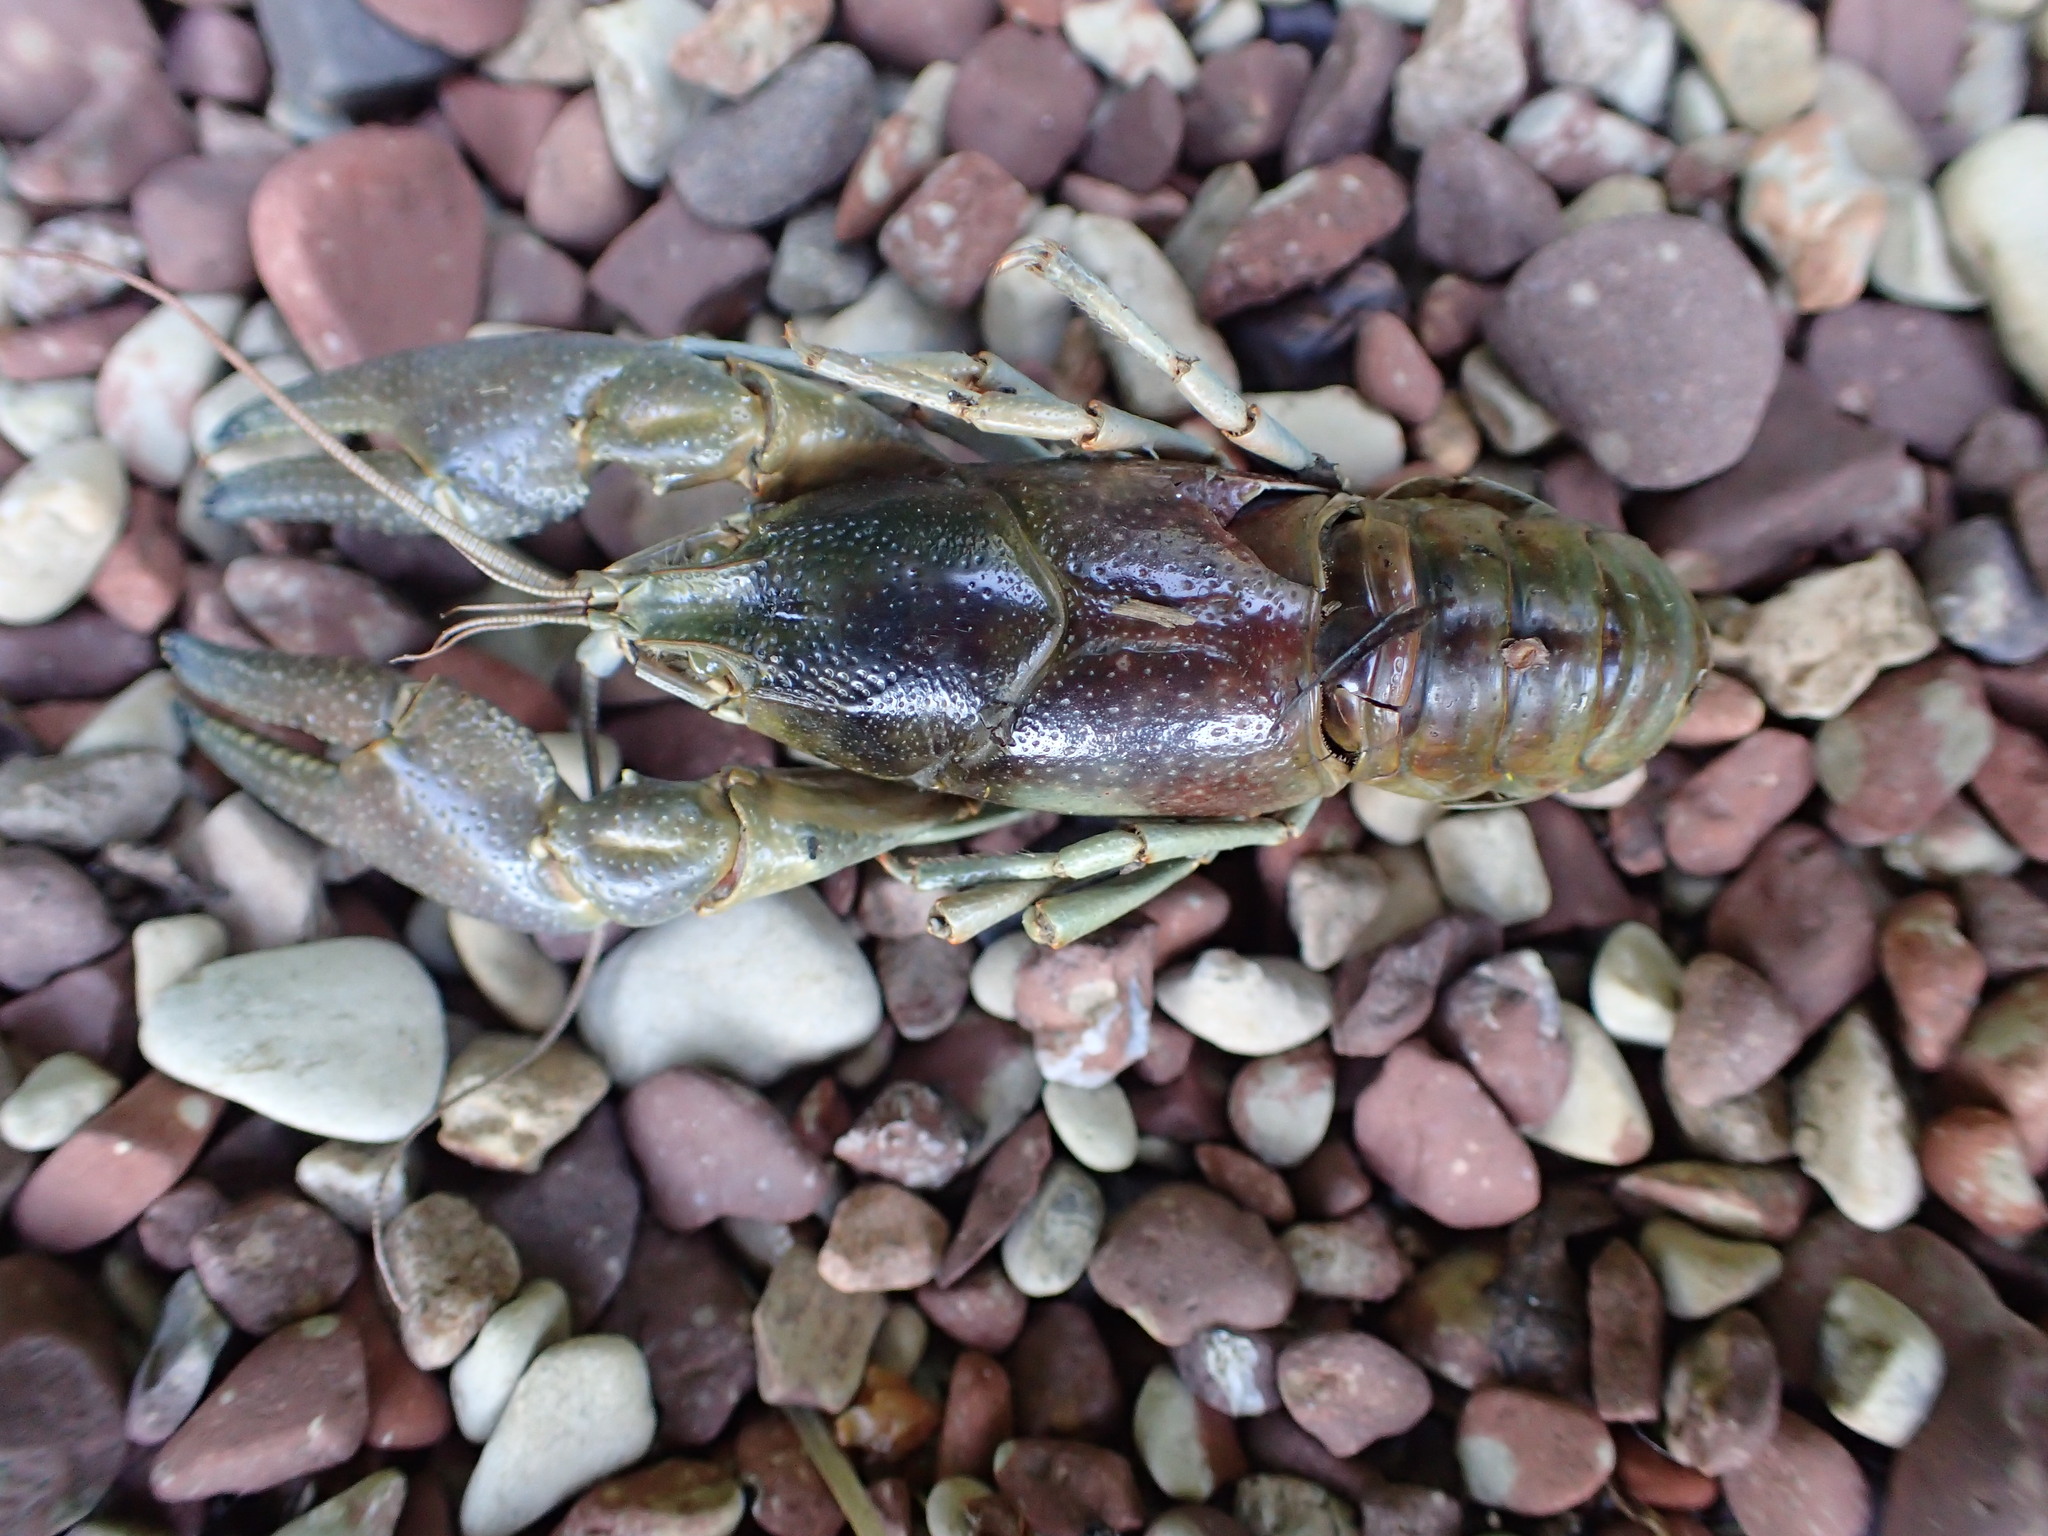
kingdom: Animalia
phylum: Arthropoda
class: Malacostraca
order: Decapoda
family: Cambaridae
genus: Faxonius
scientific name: Faxonius rusticus
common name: Rusty crayfish
